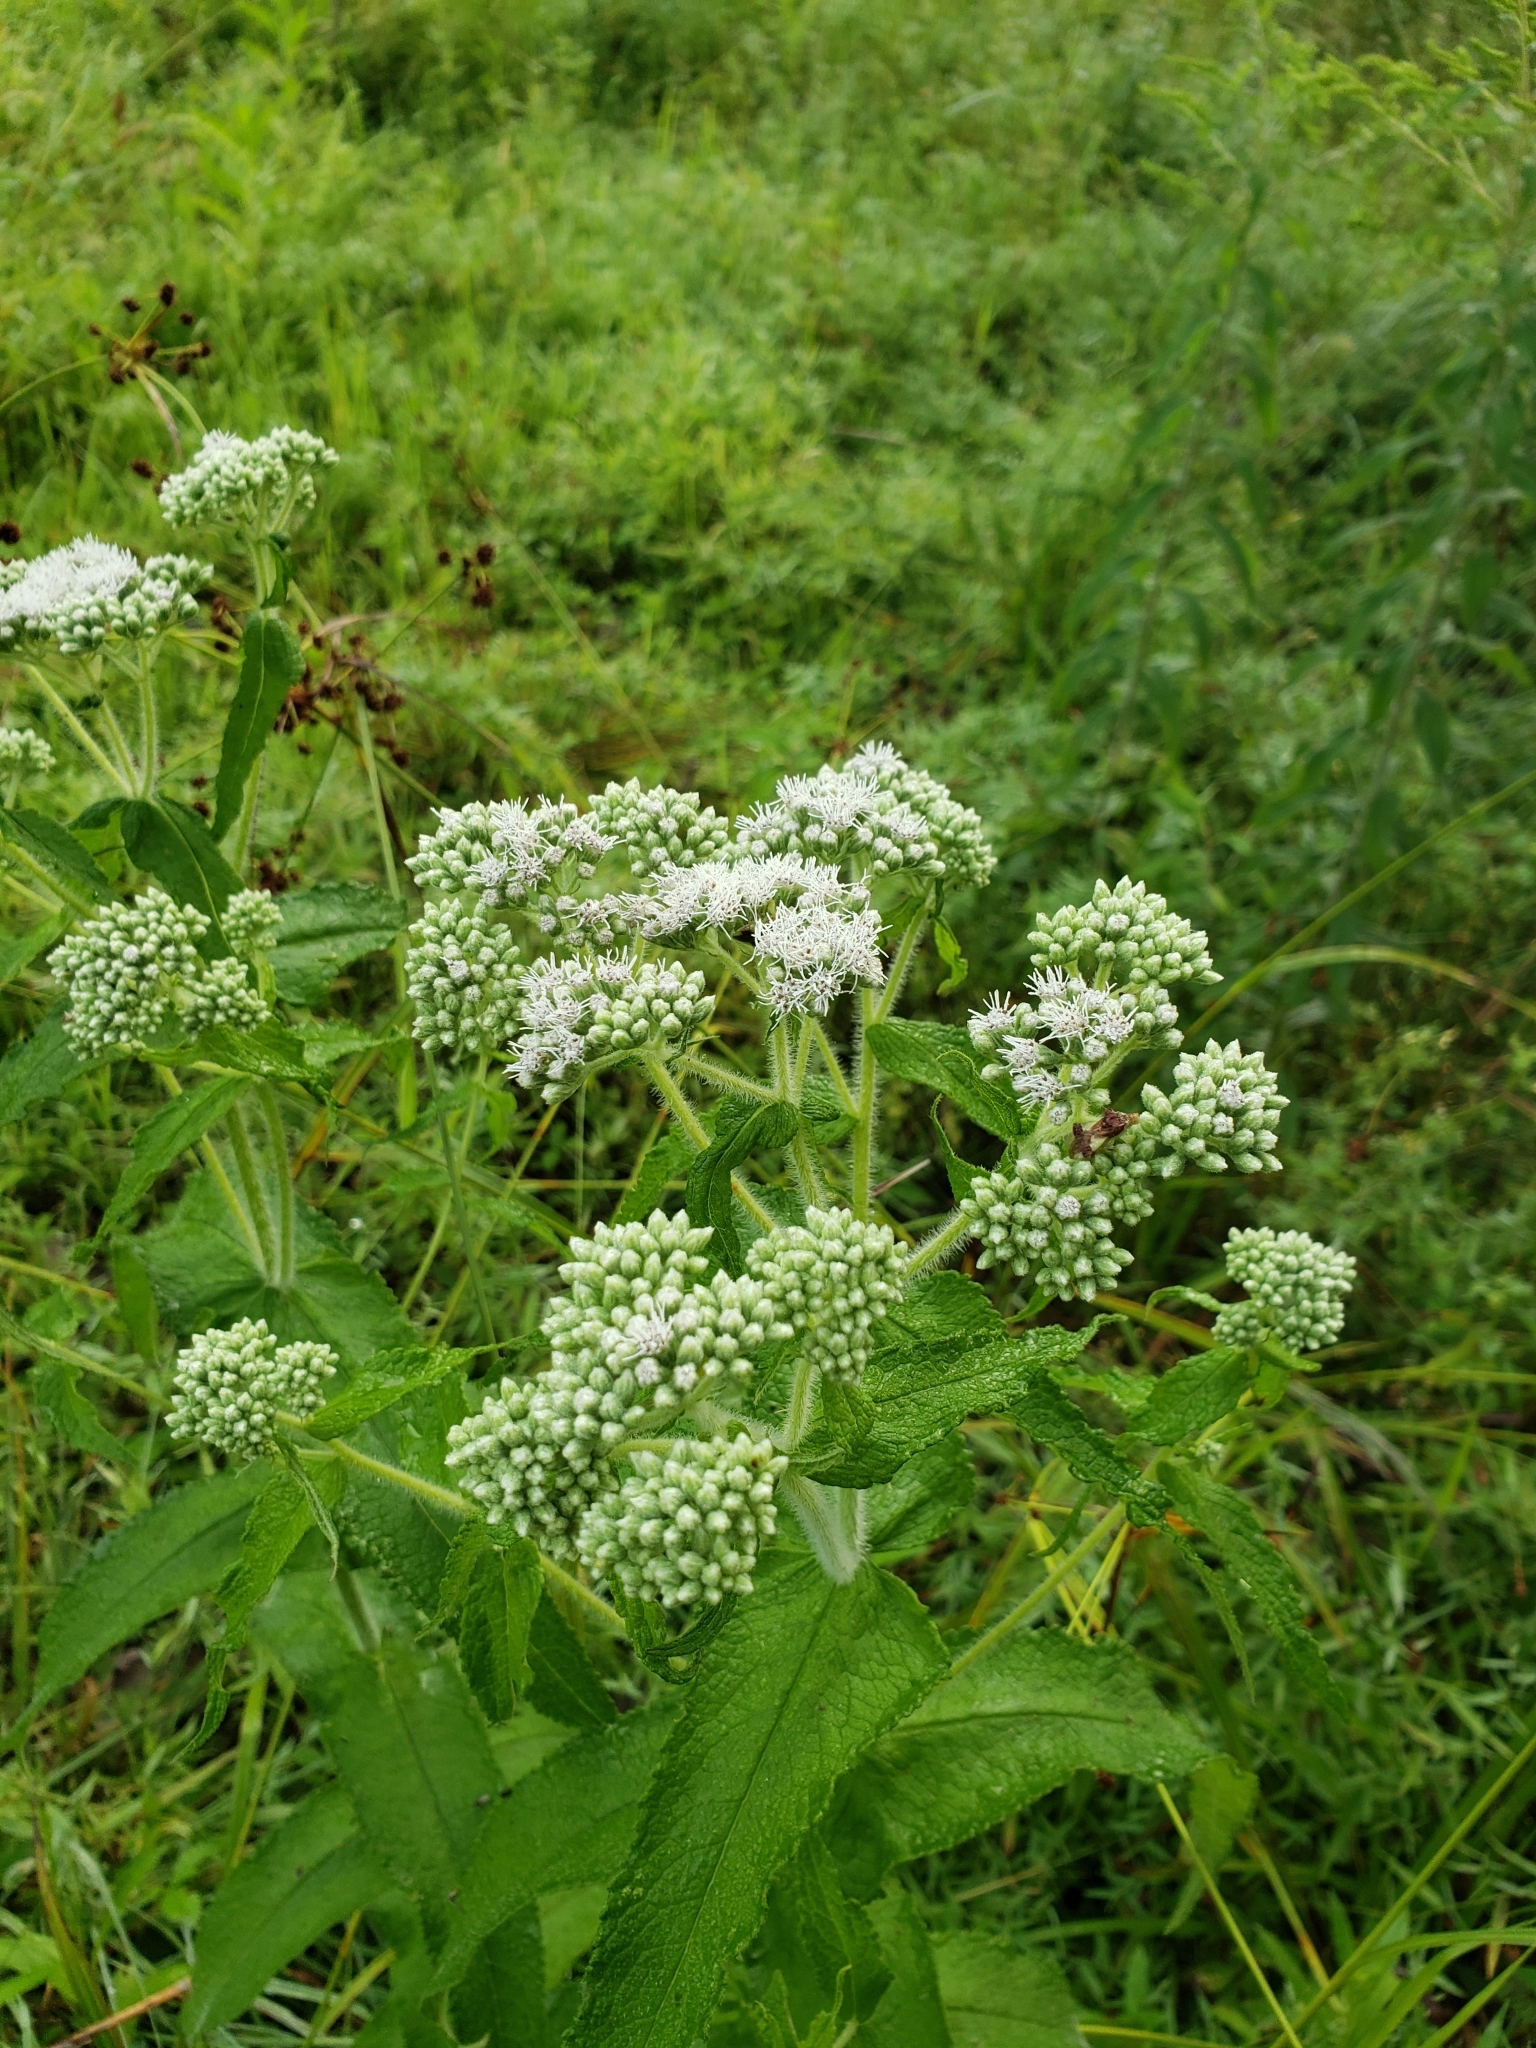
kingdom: Plantae
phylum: Tracheophyta
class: Magnoliopsida
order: Asterales
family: Asteraceae
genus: Eupatorium
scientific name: Eupatorium perfoliatum
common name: Boneset
